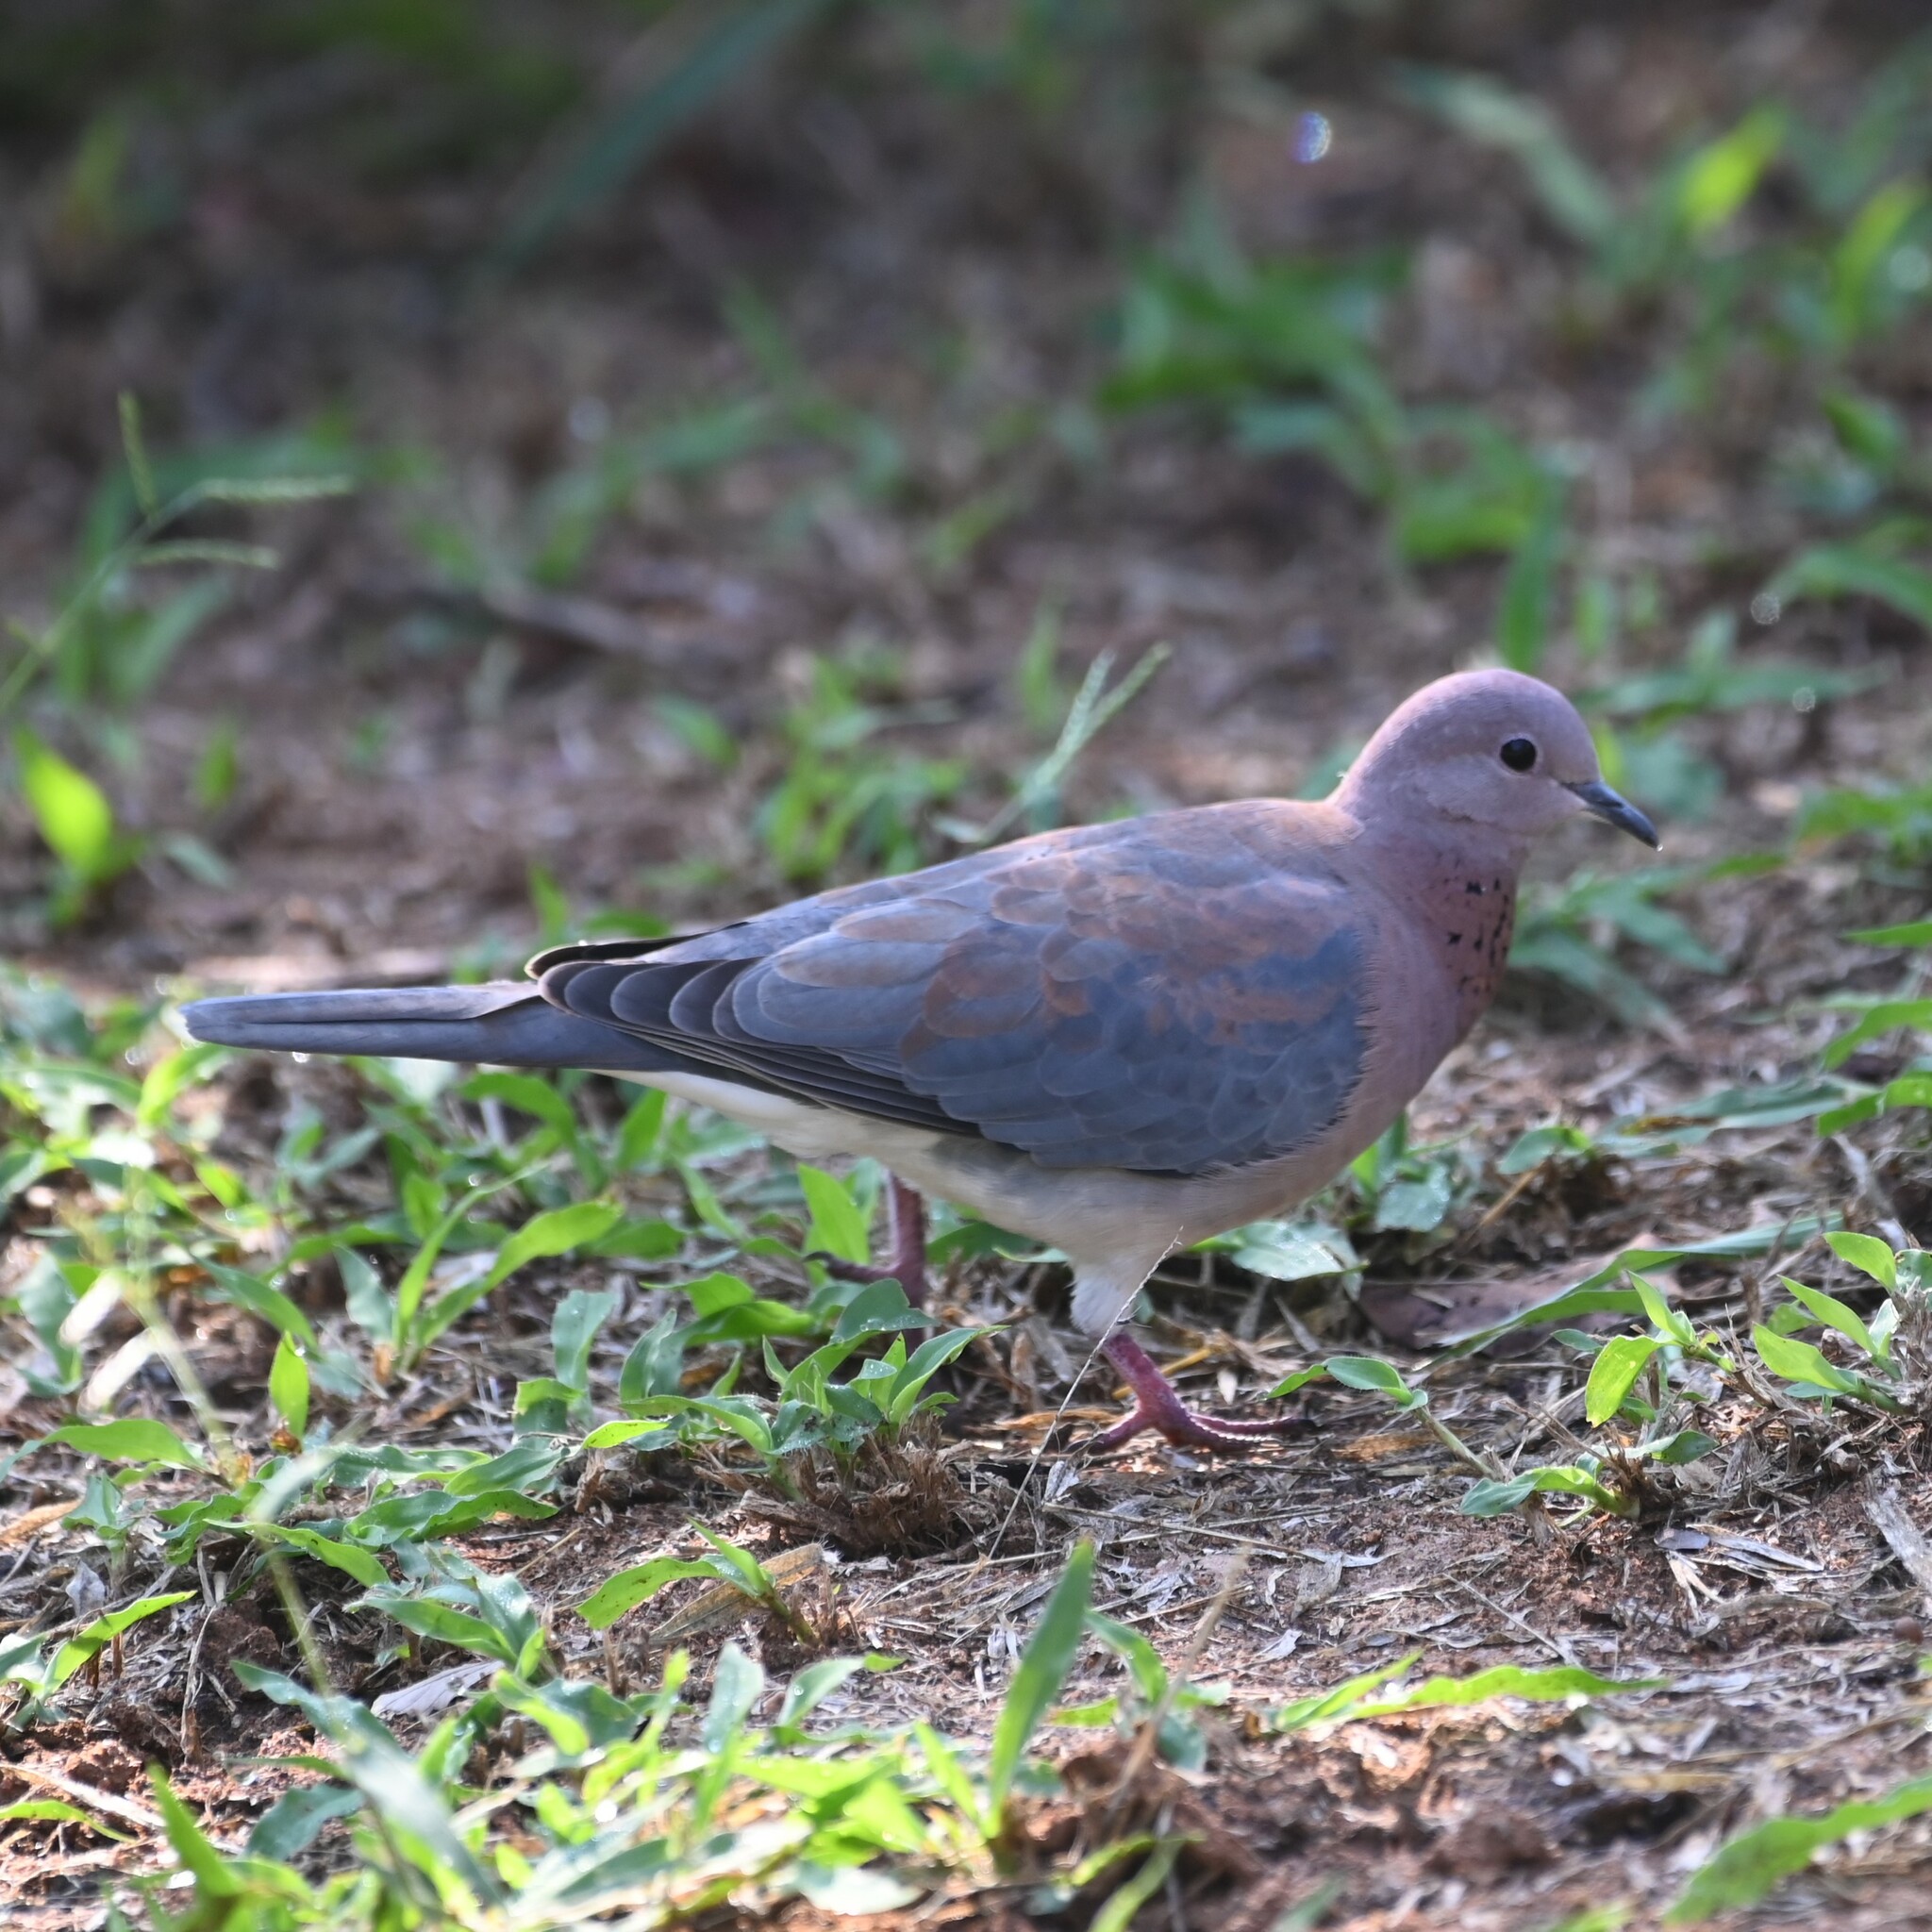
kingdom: Animalia
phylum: Chordata
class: Aves
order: Columbiformes
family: Columbidae
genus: Spilopelia
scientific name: Spilopelia senegalensis
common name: Laughing dove
